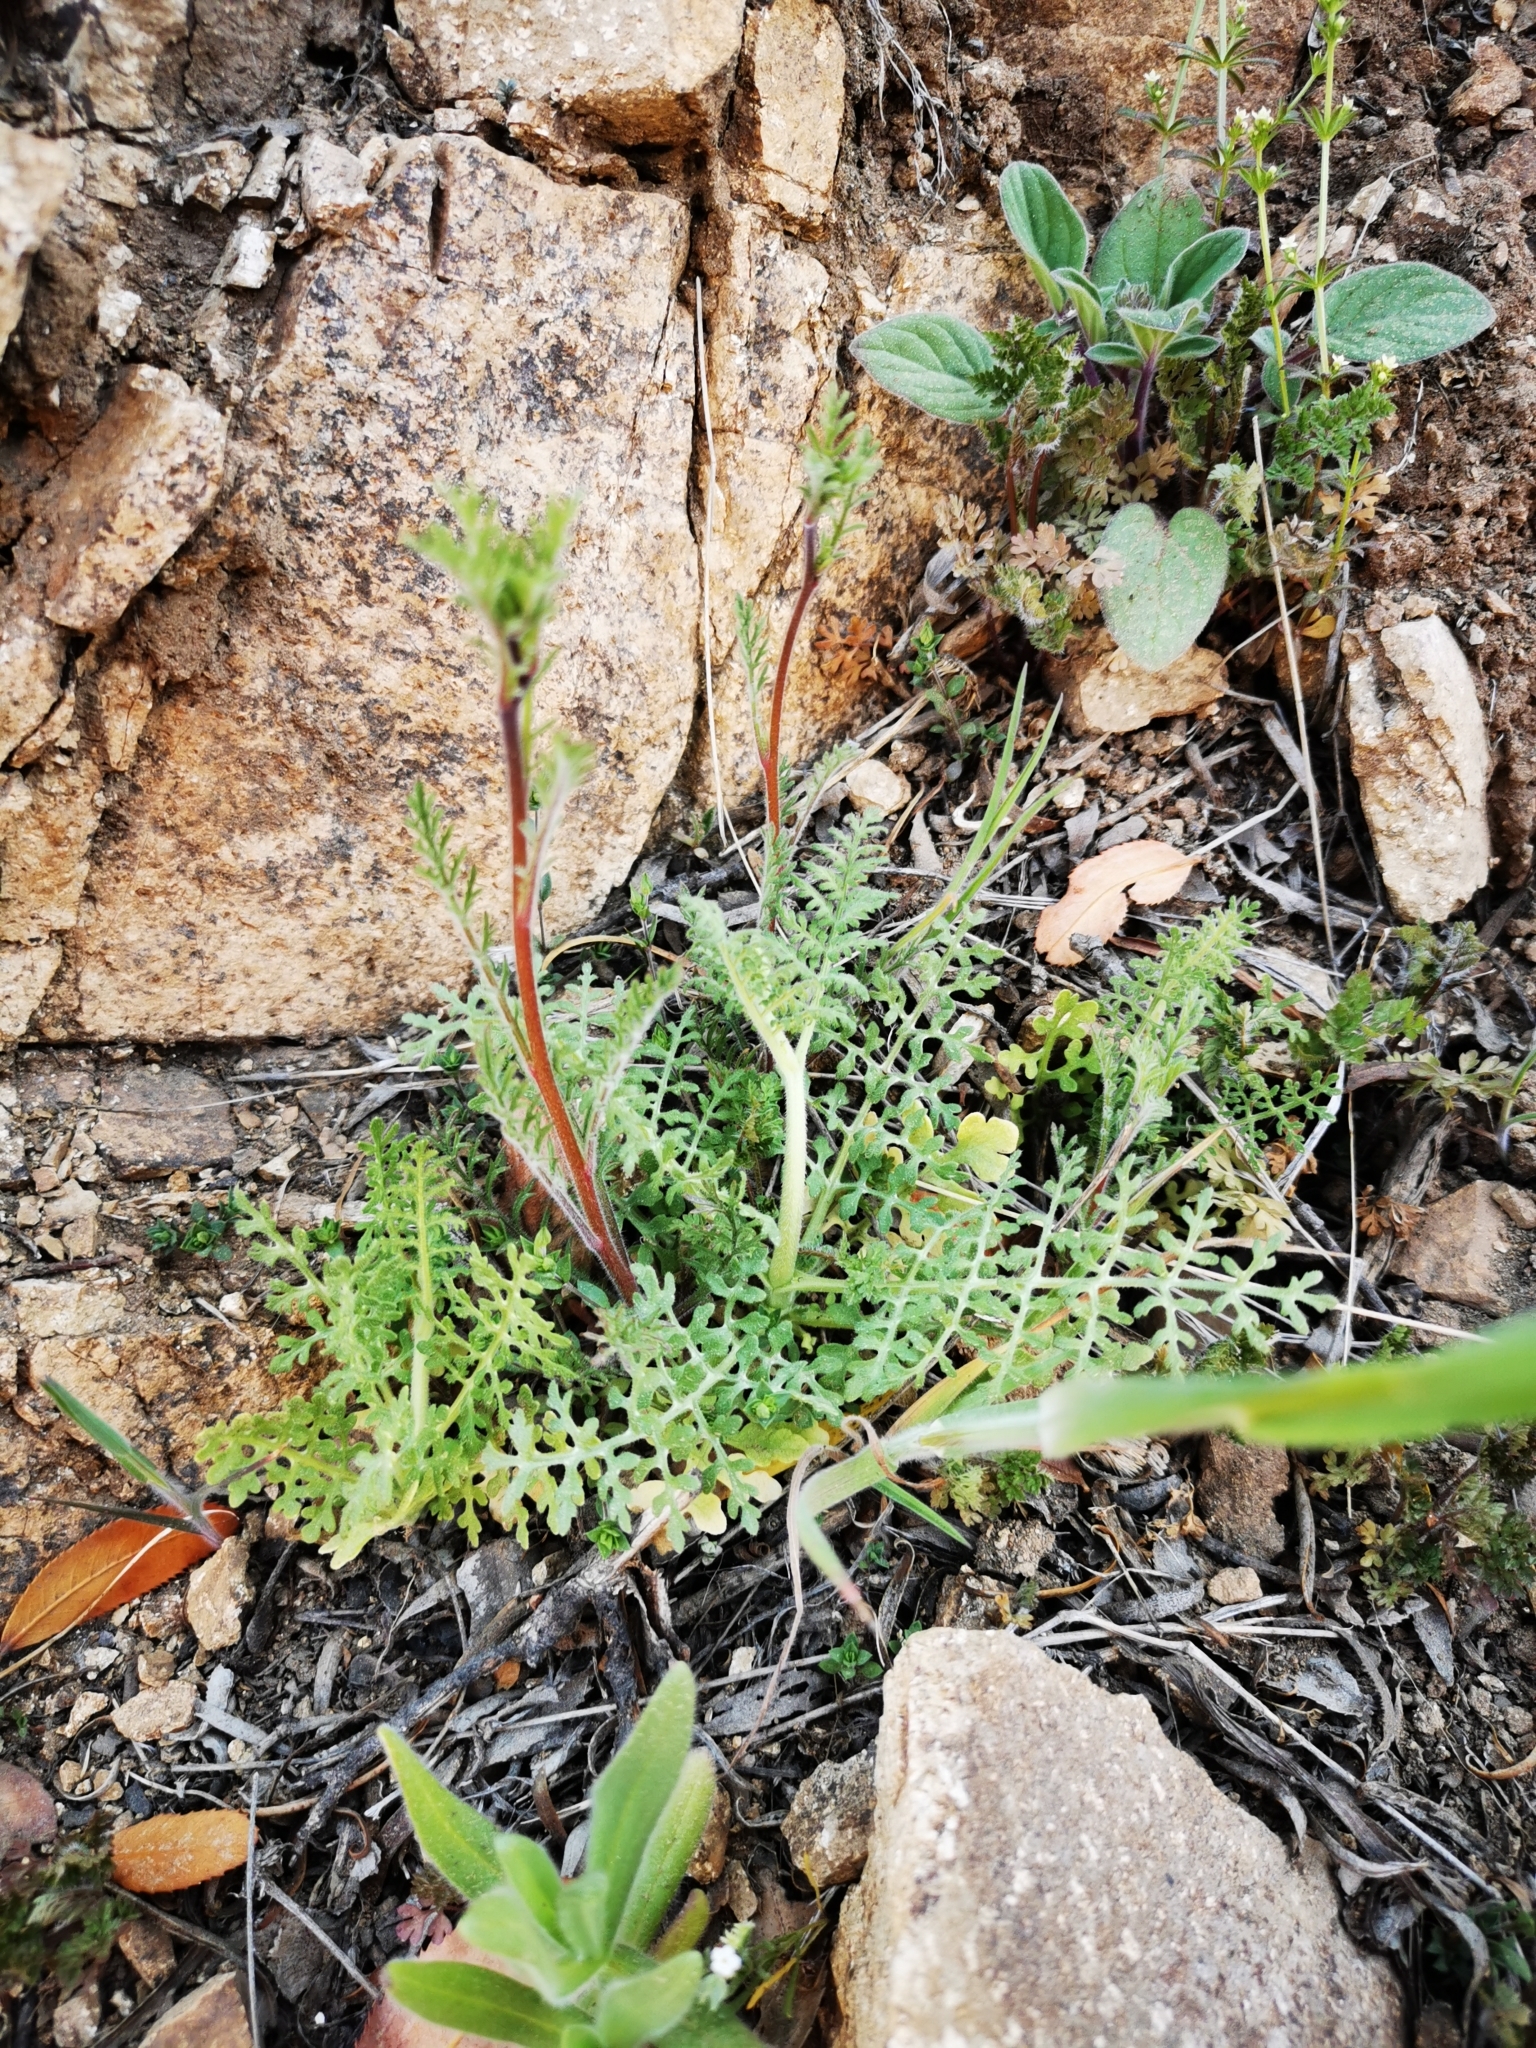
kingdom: Plantae
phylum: Tracheophyta
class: Magnoliopsida
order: Cornales
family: Loasaceae
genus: Scyphanthus
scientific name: Scyphanthus elegans
